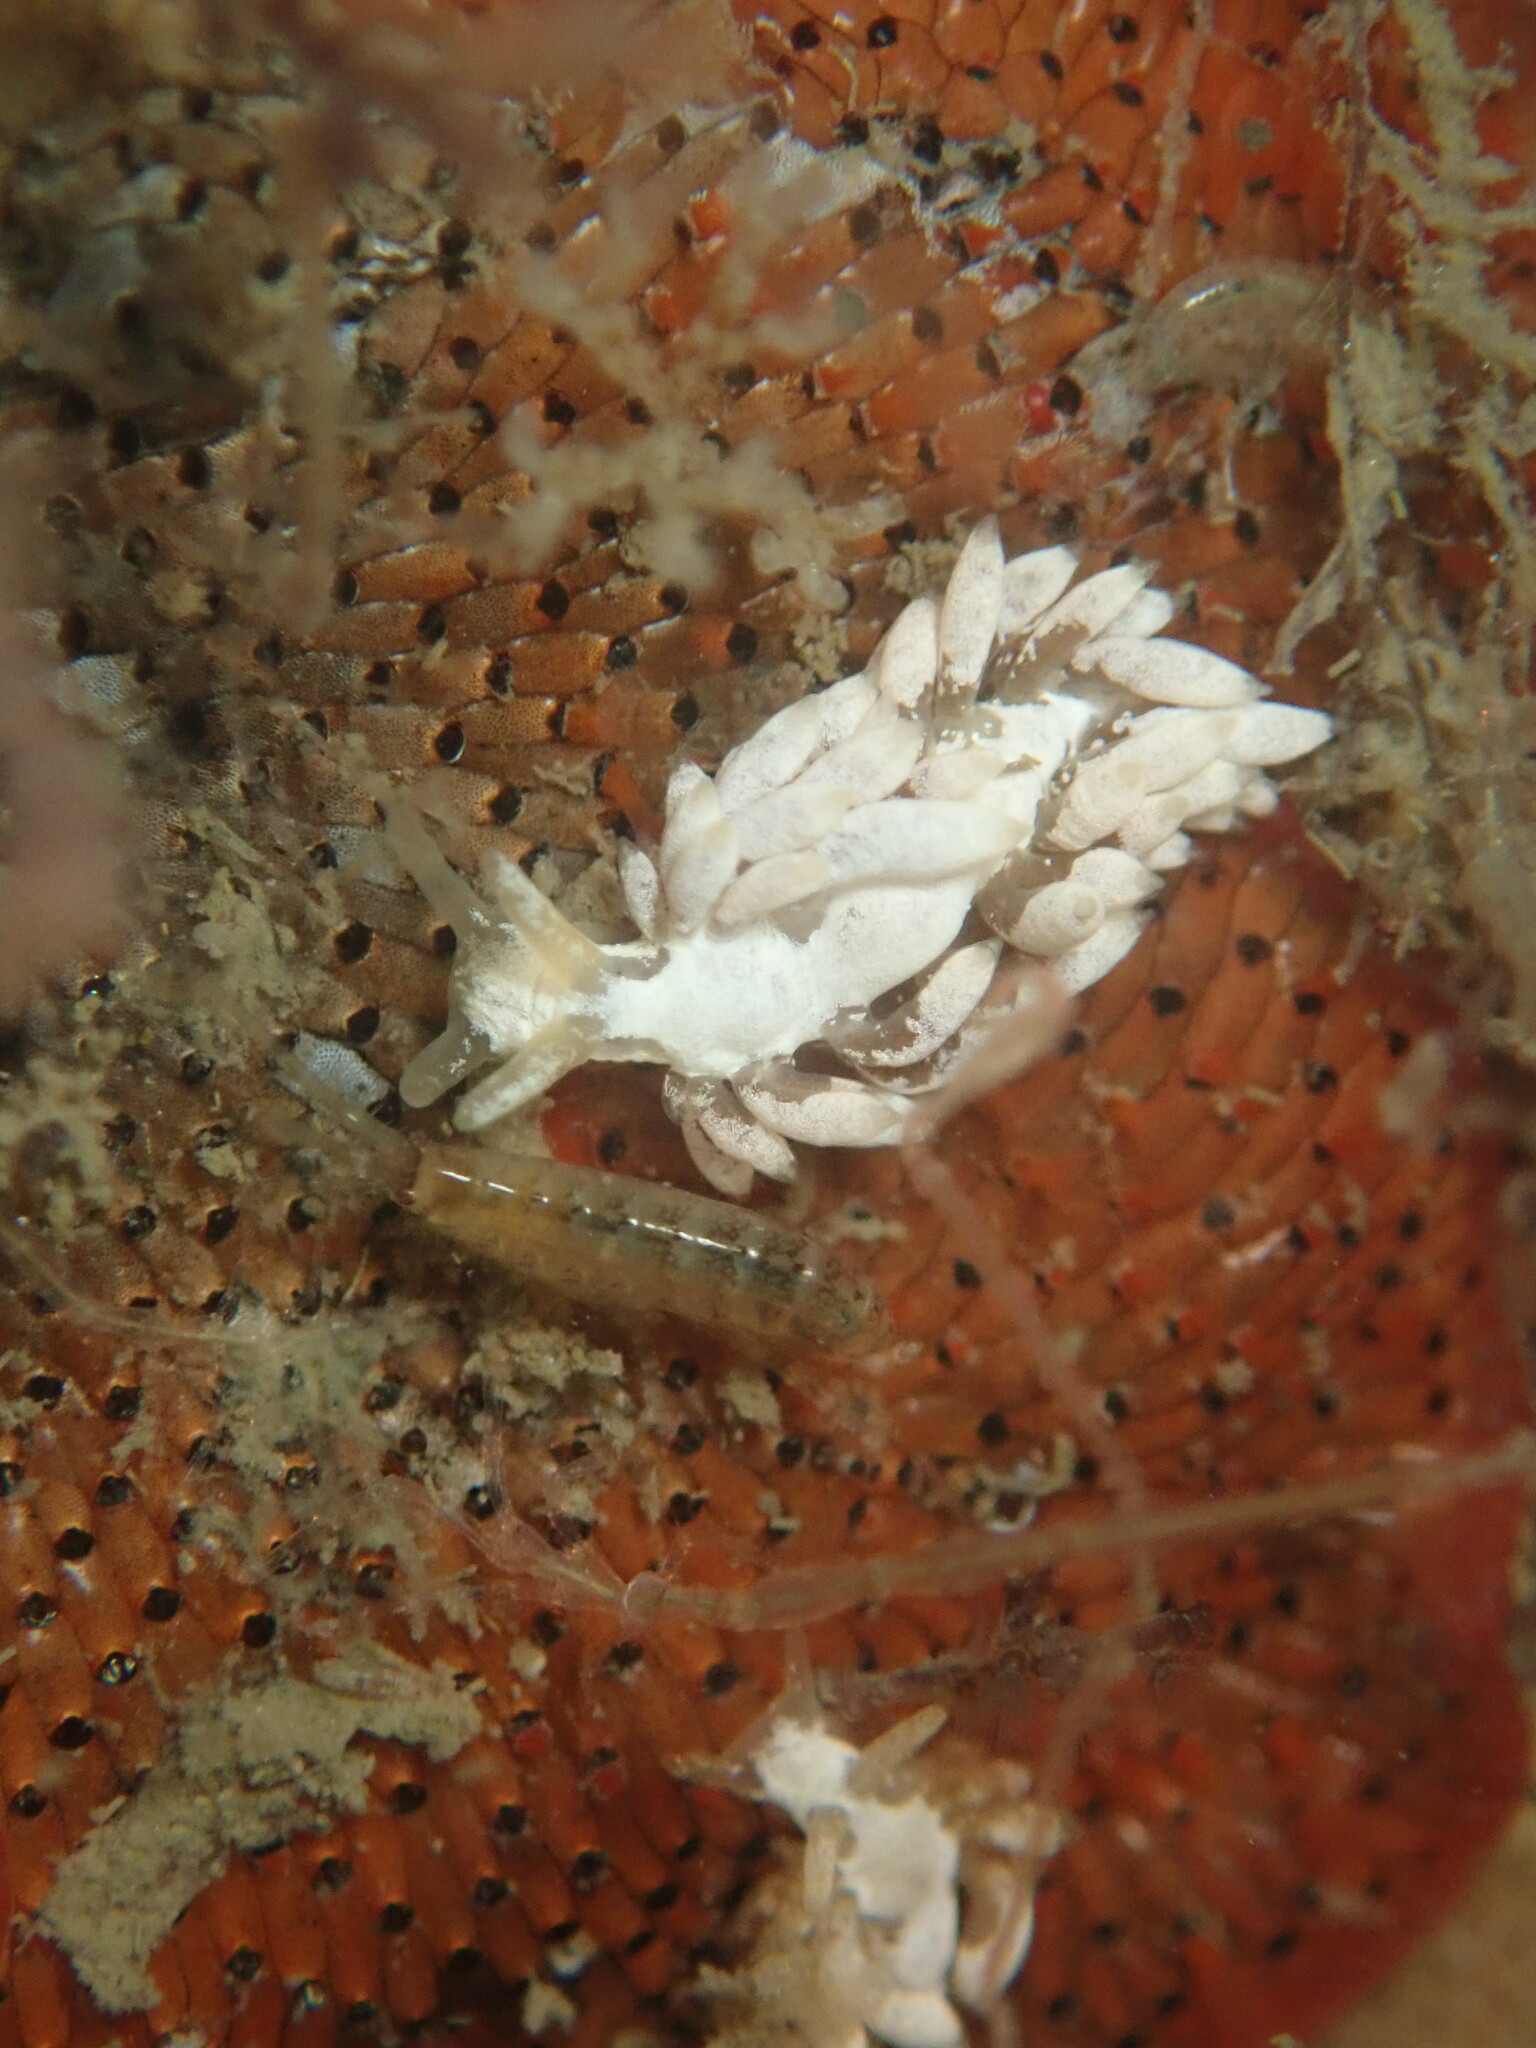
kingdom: Animalia
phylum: Mollusca
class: Gastropoda
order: Nudibranchia
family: Trinchesiidae
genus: Trinchesia
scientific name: Trinchesia albocrusta
